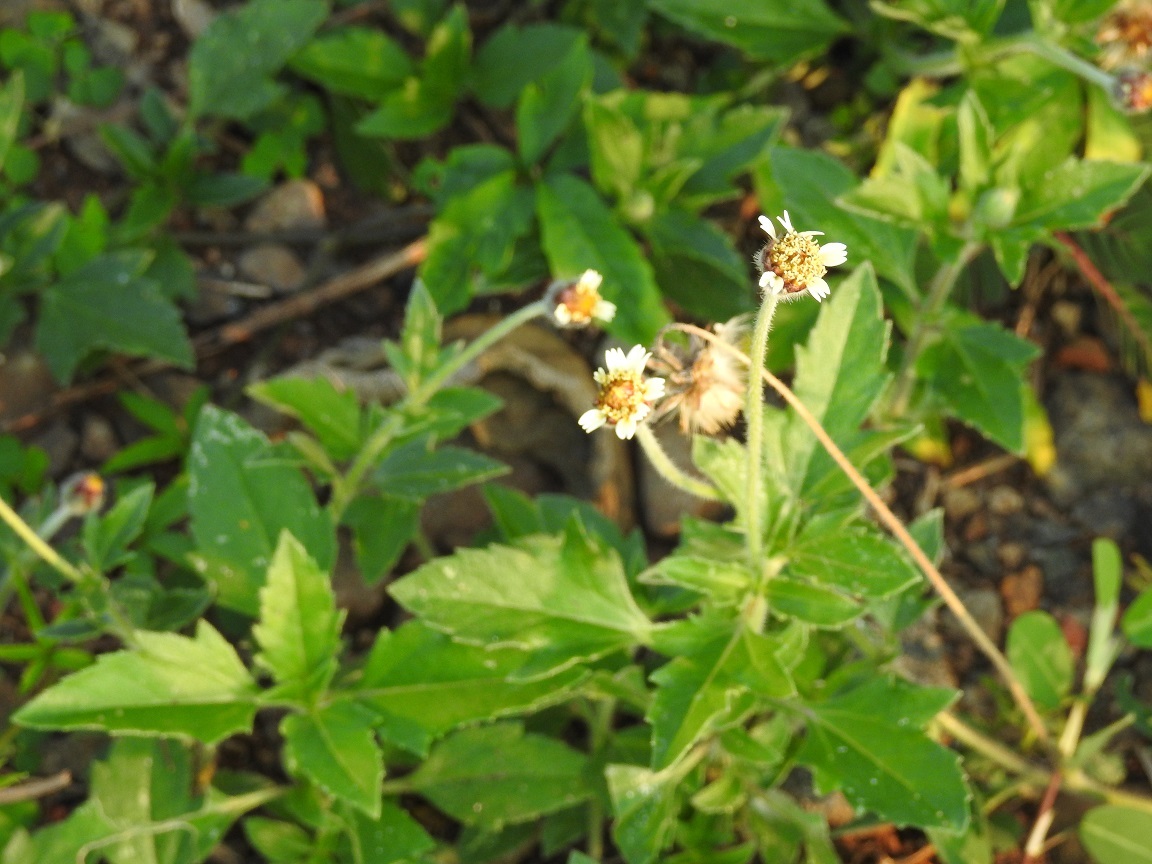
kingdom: Plantae
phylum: Tracheophyta
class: Magnoliopsida
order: Asterales
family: Asteraceae
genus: Tridax
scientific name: Tridax procumbens
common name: Coatbuttons
